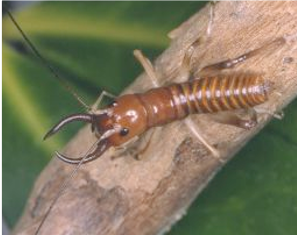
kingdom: Animalia
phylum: Arthropoda
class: Insecta
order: Orthoptera
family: Anostostomatidae
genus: Anisoura
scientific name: Anisoura nicobarica
